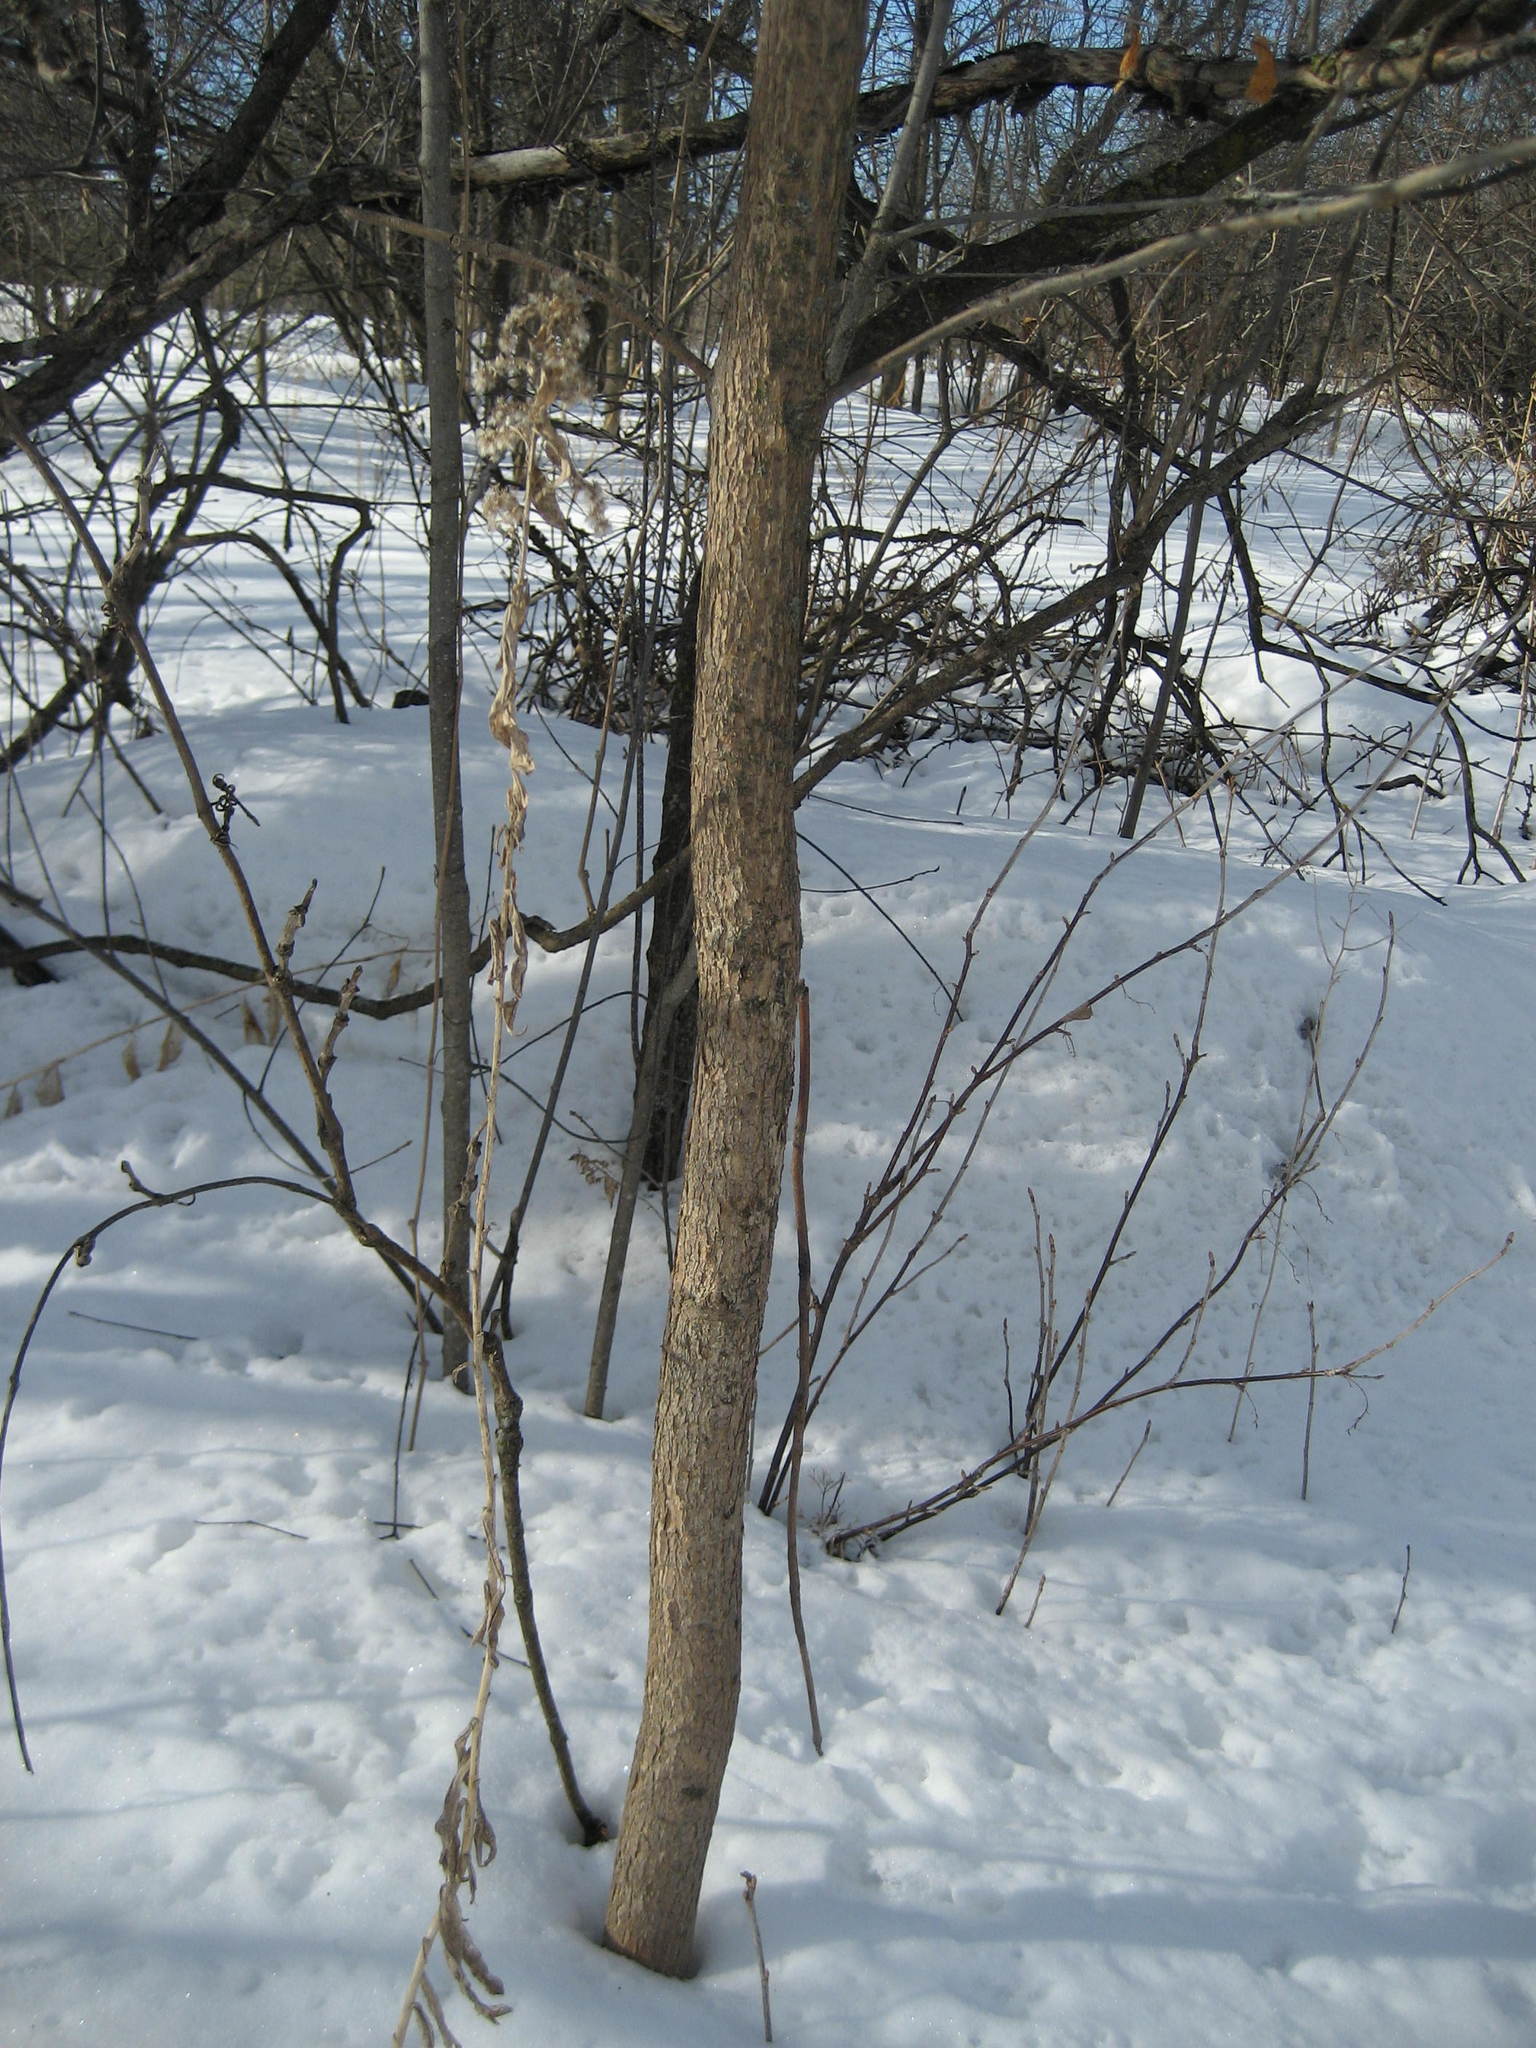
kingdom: Plantae
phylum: Tracheophyta
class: Magnoliopsida
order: Lamiales
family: Oleaceae
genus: Fraxinus
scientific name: Fraxinus pennsylvanica
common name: Green ash
